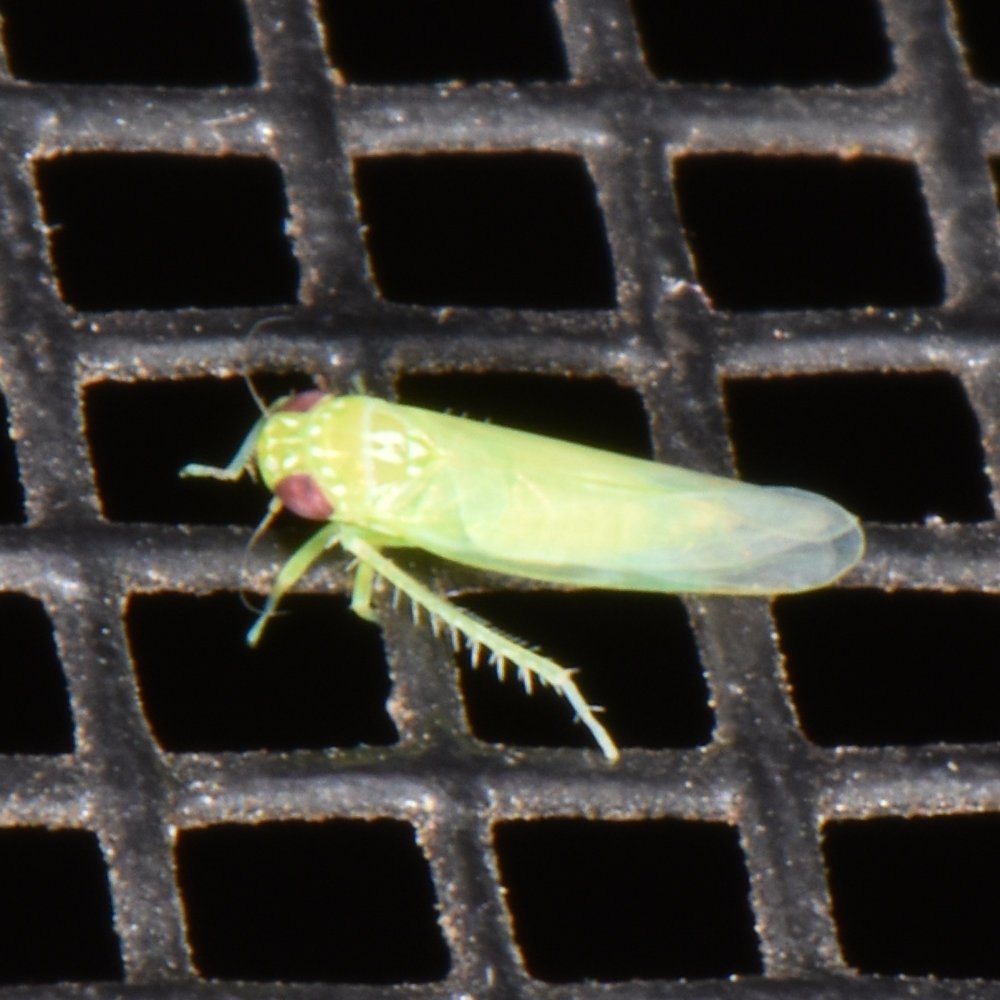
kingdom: Animalia
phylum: Arthropoda
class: Insecta
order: Hemiptera
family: Cicadellidae
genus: Empoasca
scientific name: Empoasca fabae
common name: Potato leafhopper
